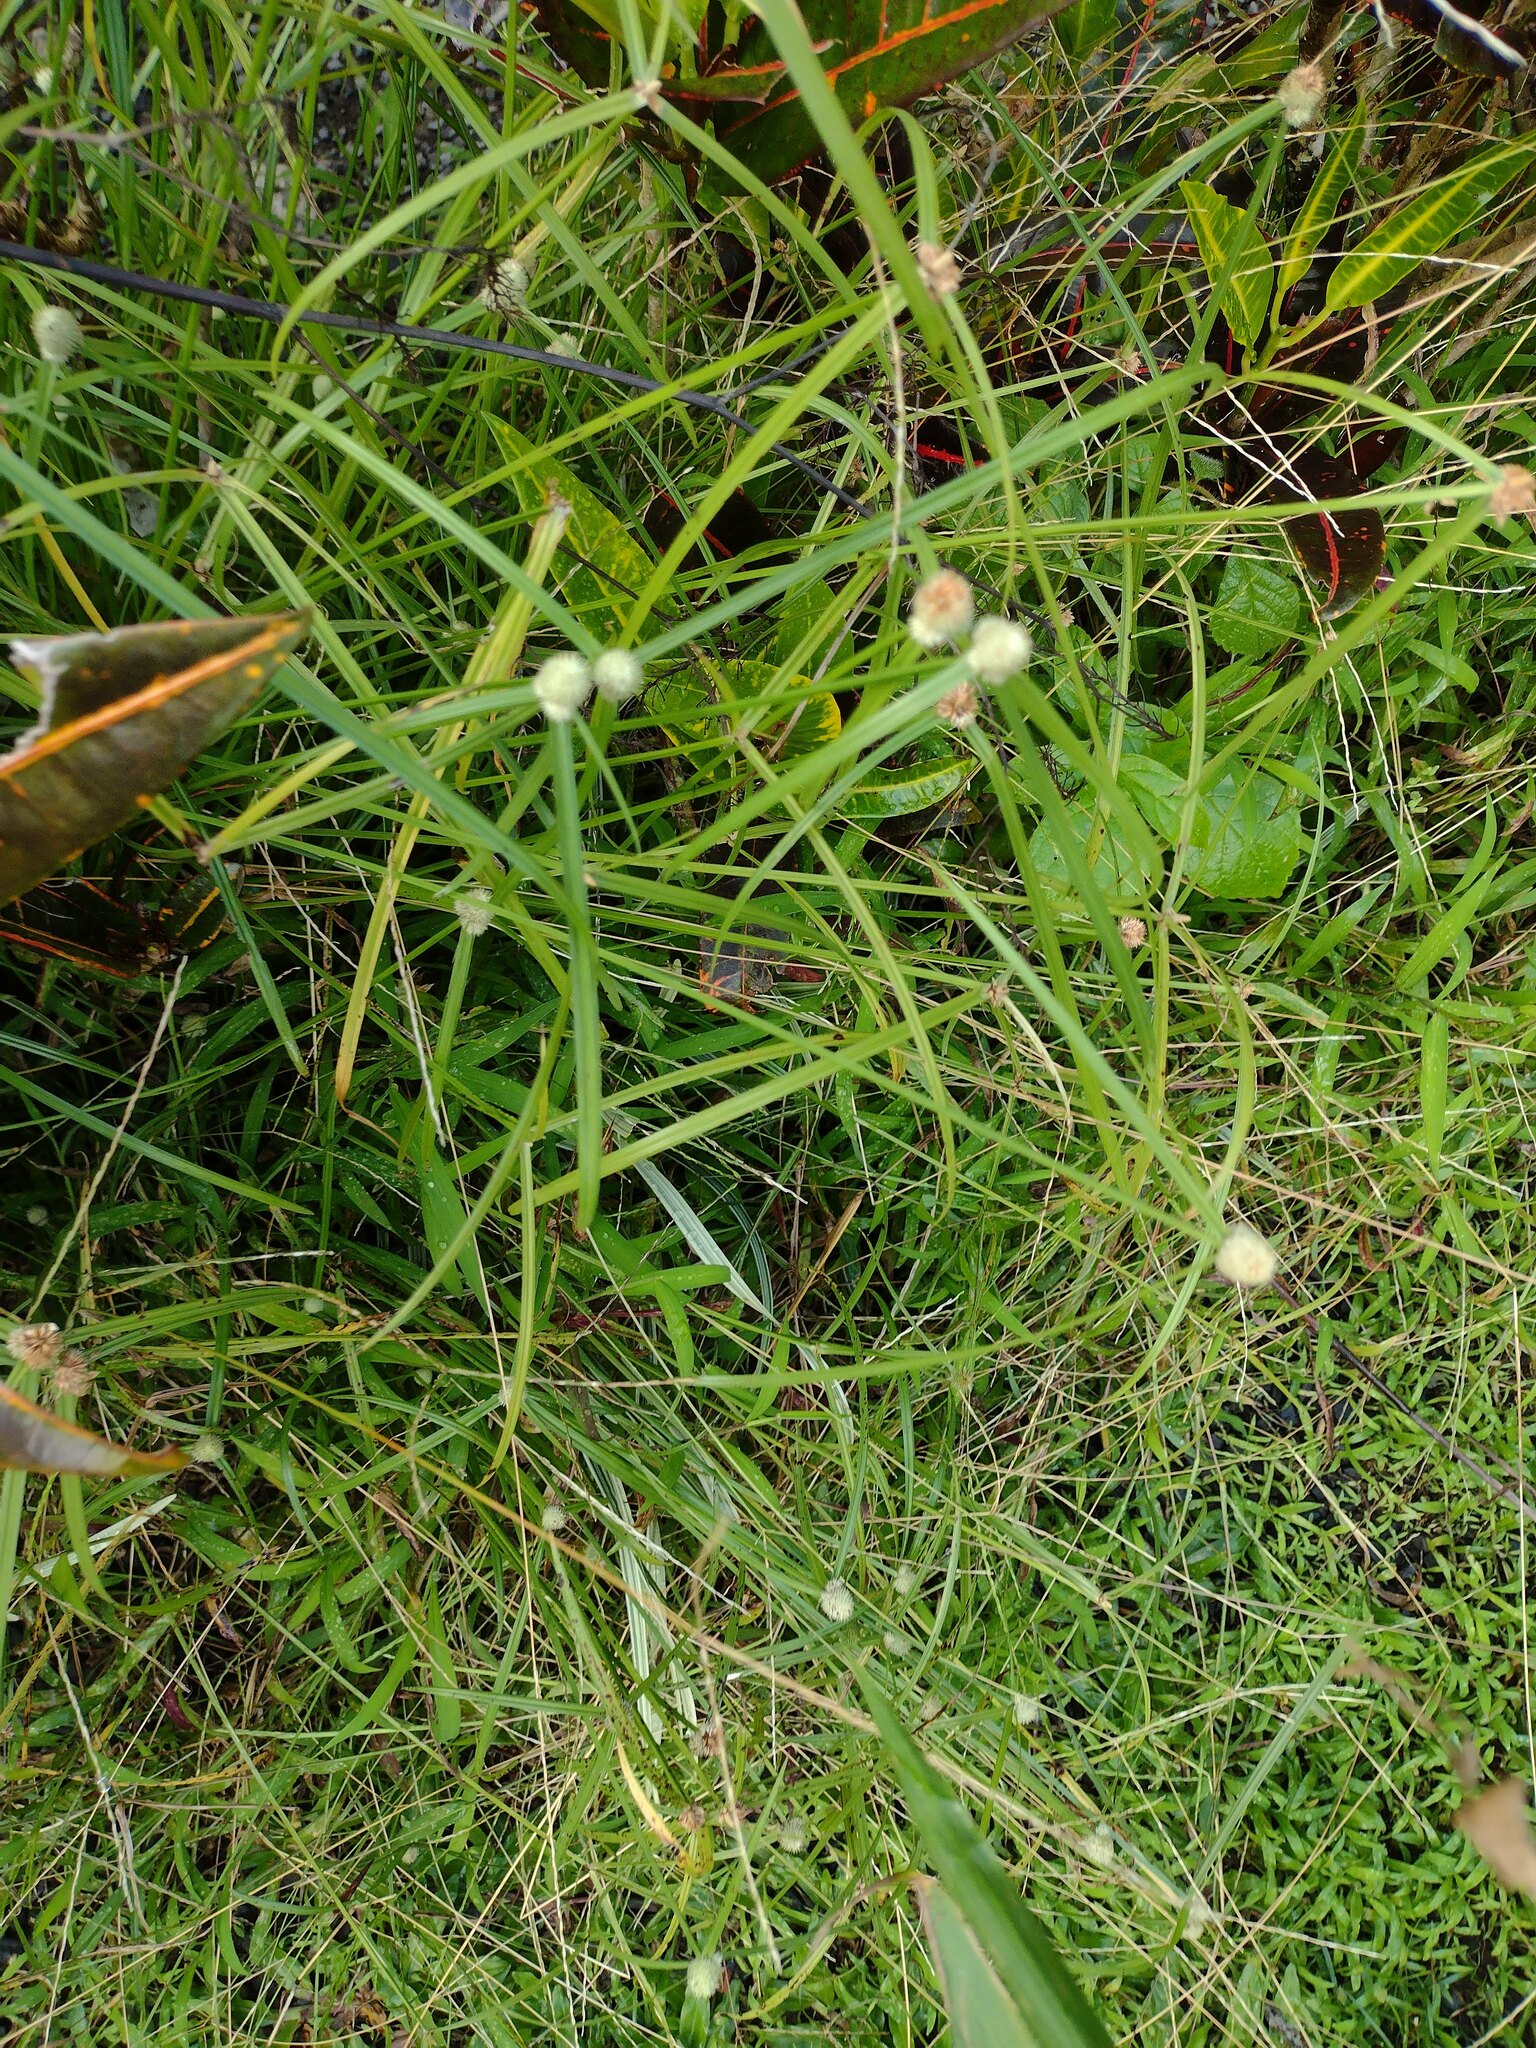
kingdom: Plantae
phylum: Tracheophyta
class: Liliopsida
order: Poales
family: Cyperaceae
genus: Cyperus
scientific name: Cyperus mindorensis
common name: Flatsedge
